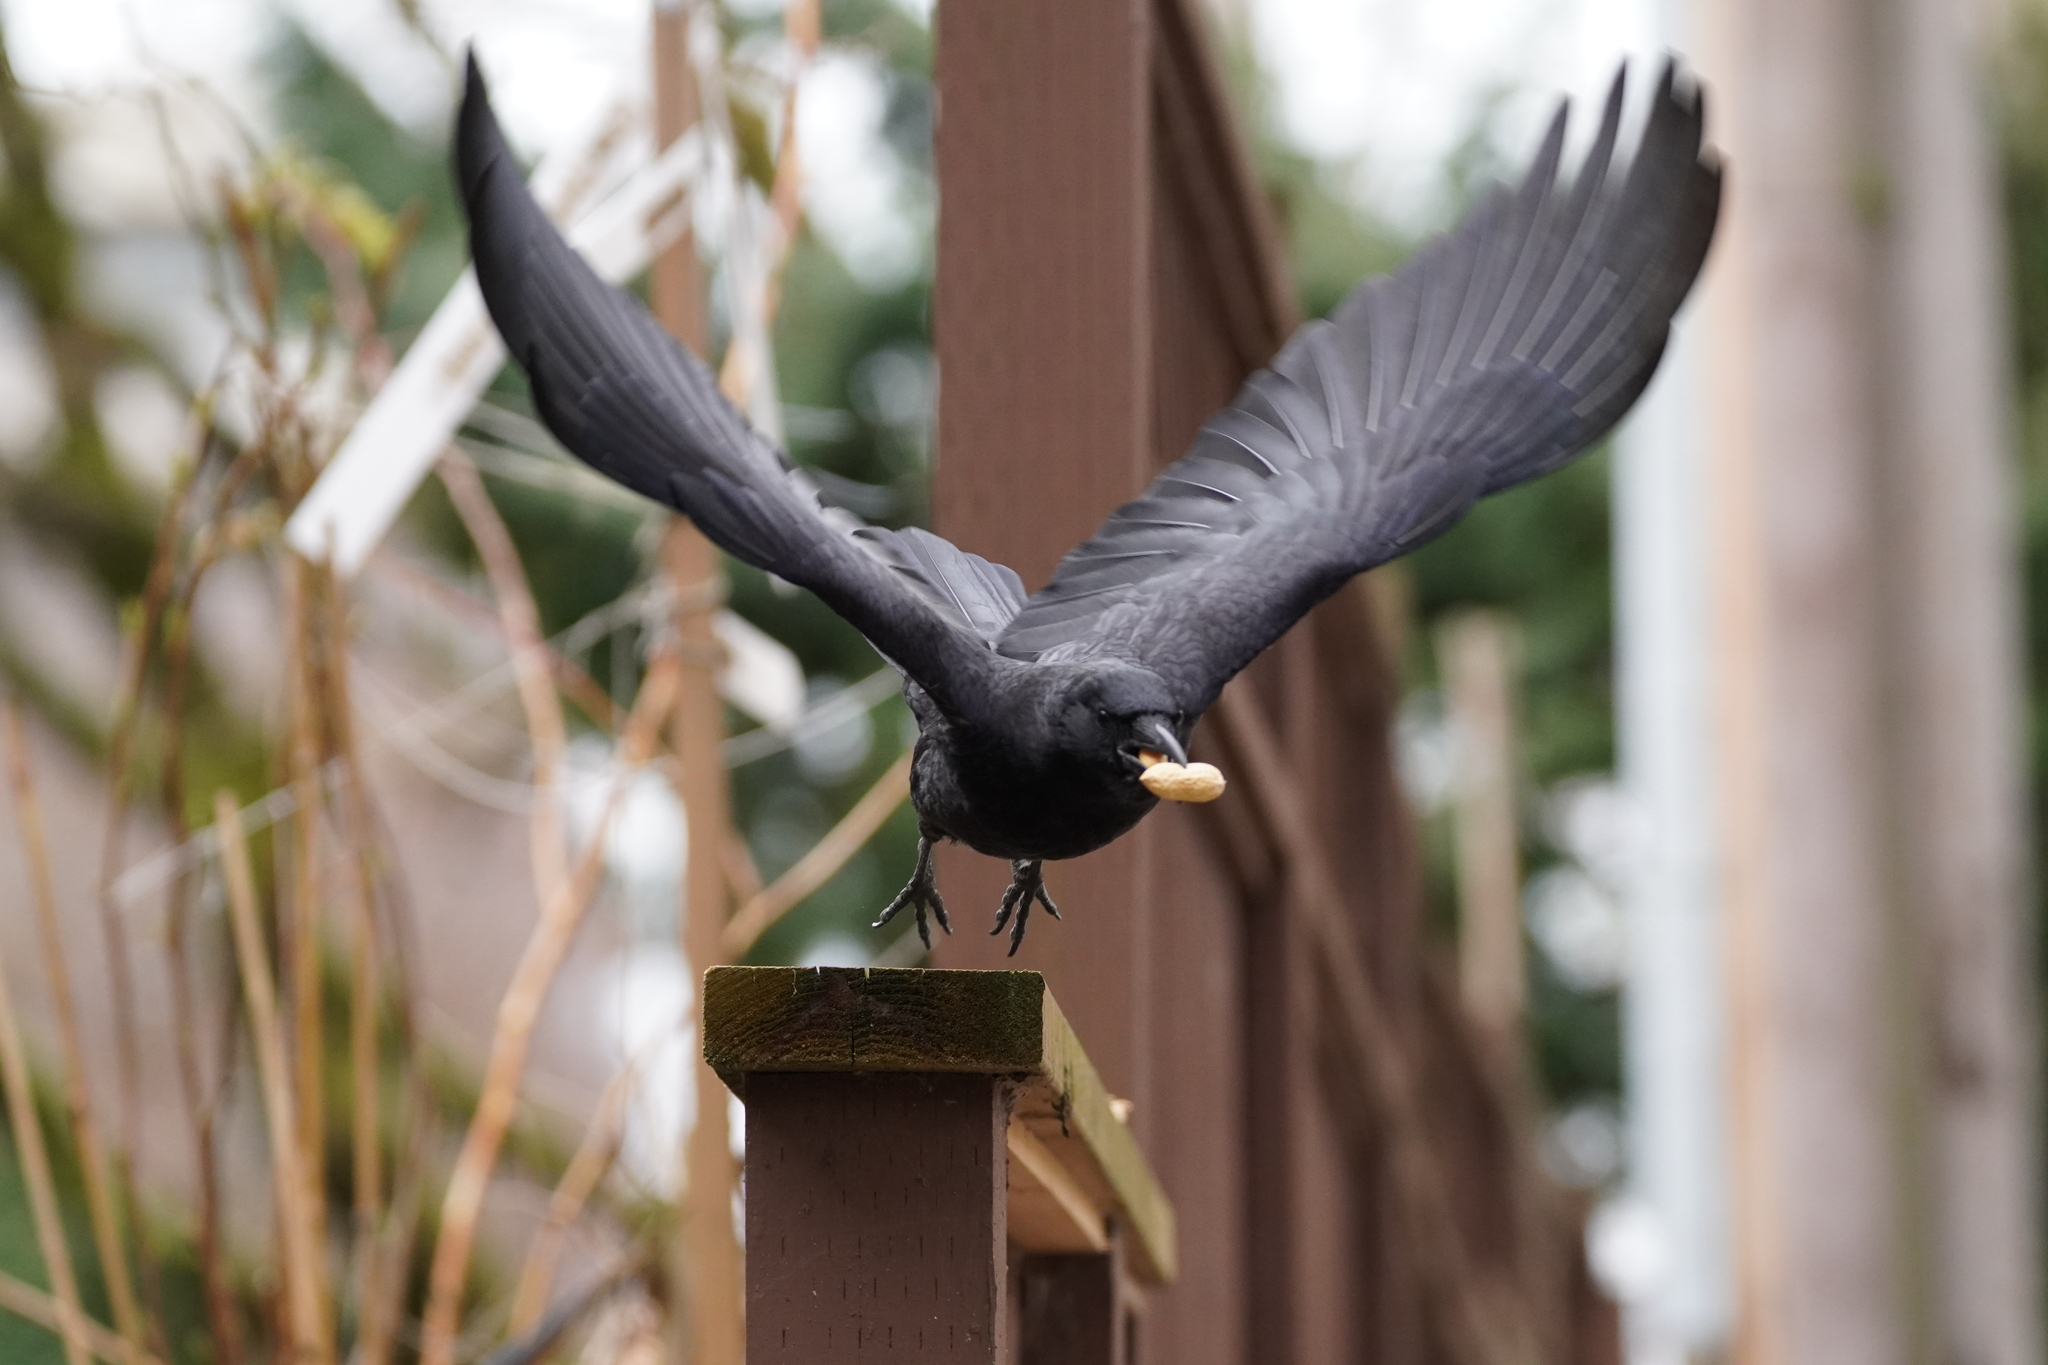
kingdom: Animalia
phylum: Chordata
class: Aves
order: Passeriformes
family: Corvidae
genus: Corvus
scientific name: Corvus brachyrhynchos
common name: American crow
